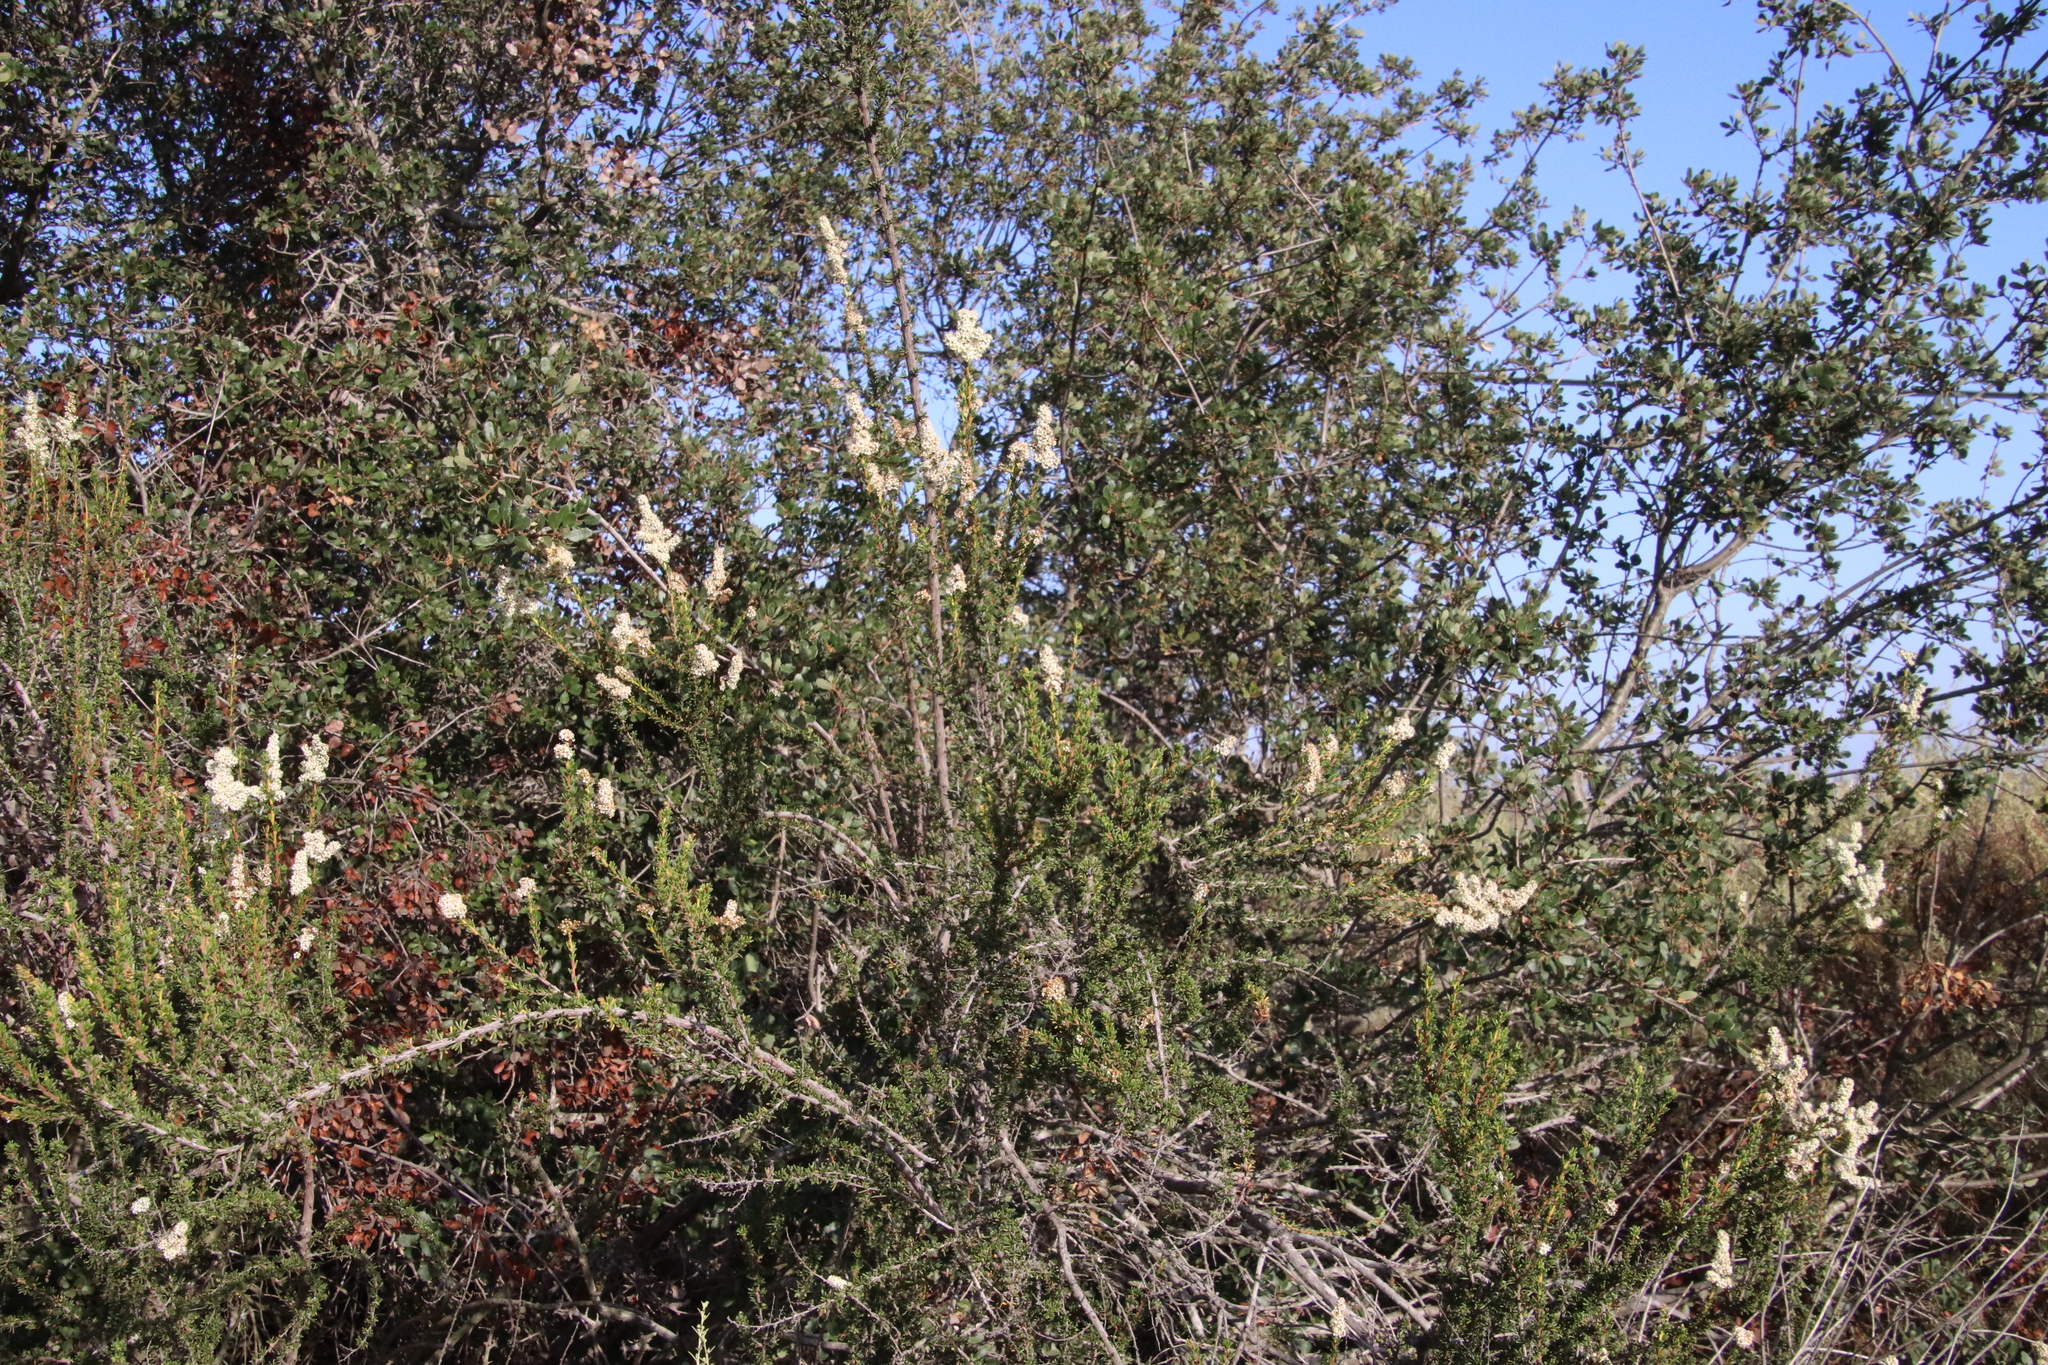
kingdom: Plantae
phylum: Tracheophyta
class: Magnoliopsida
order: Rosales
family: Rosaceae
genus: Adenostoma
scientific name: Adenostoma fasciculatum
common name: Chamise
